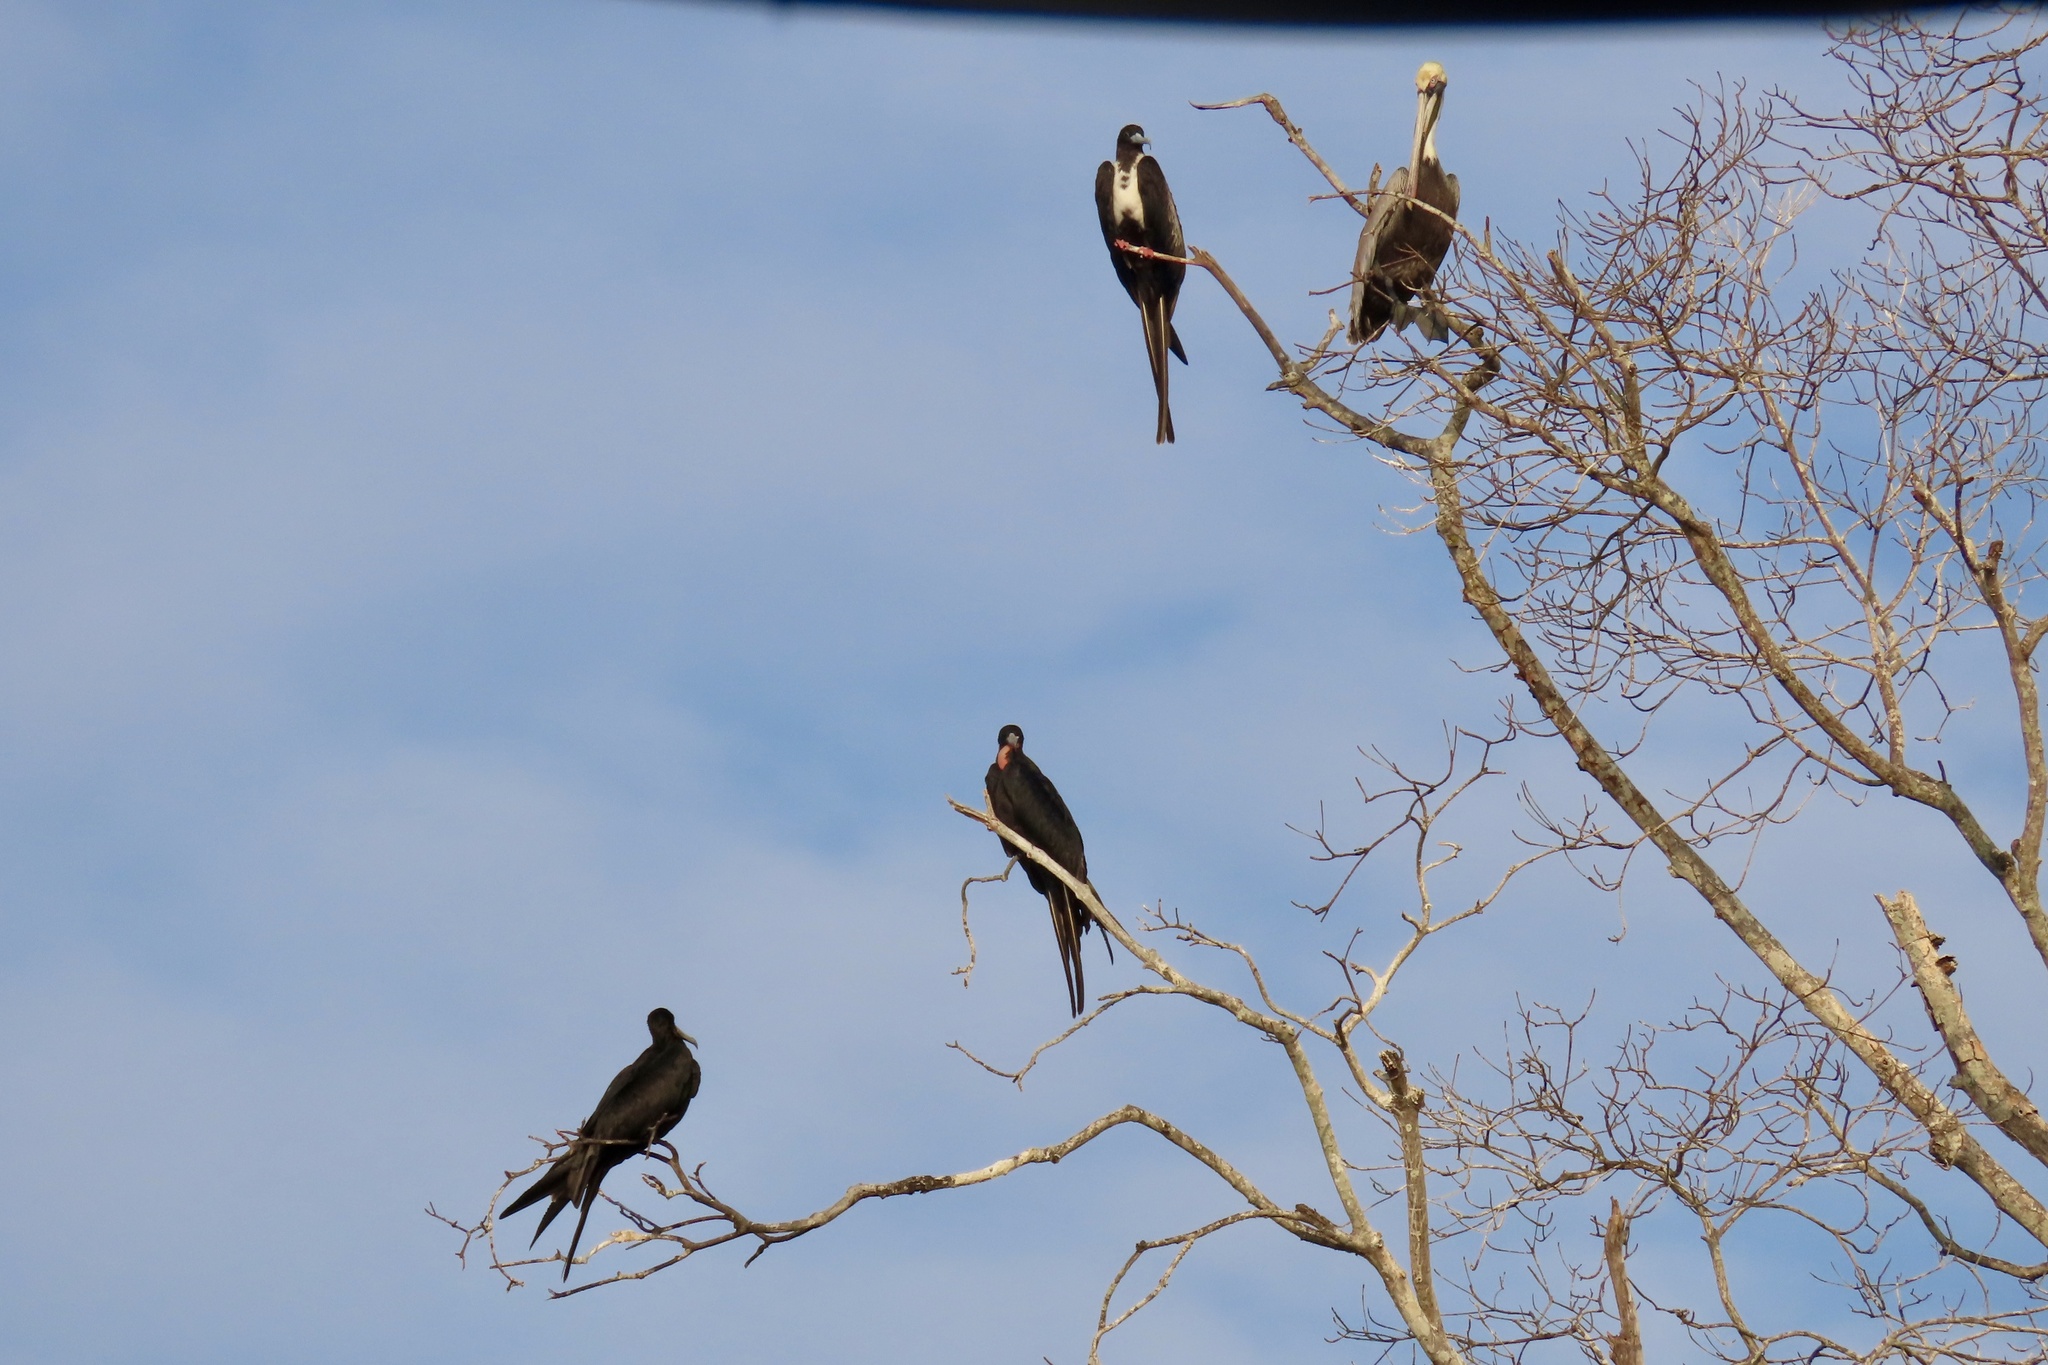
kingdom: Animalia
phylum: Chordata
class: Aves
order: Suliformes
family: Fregatidae
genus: Fregata
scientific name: Fregata magnificens
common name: Magnificent frigatebird
